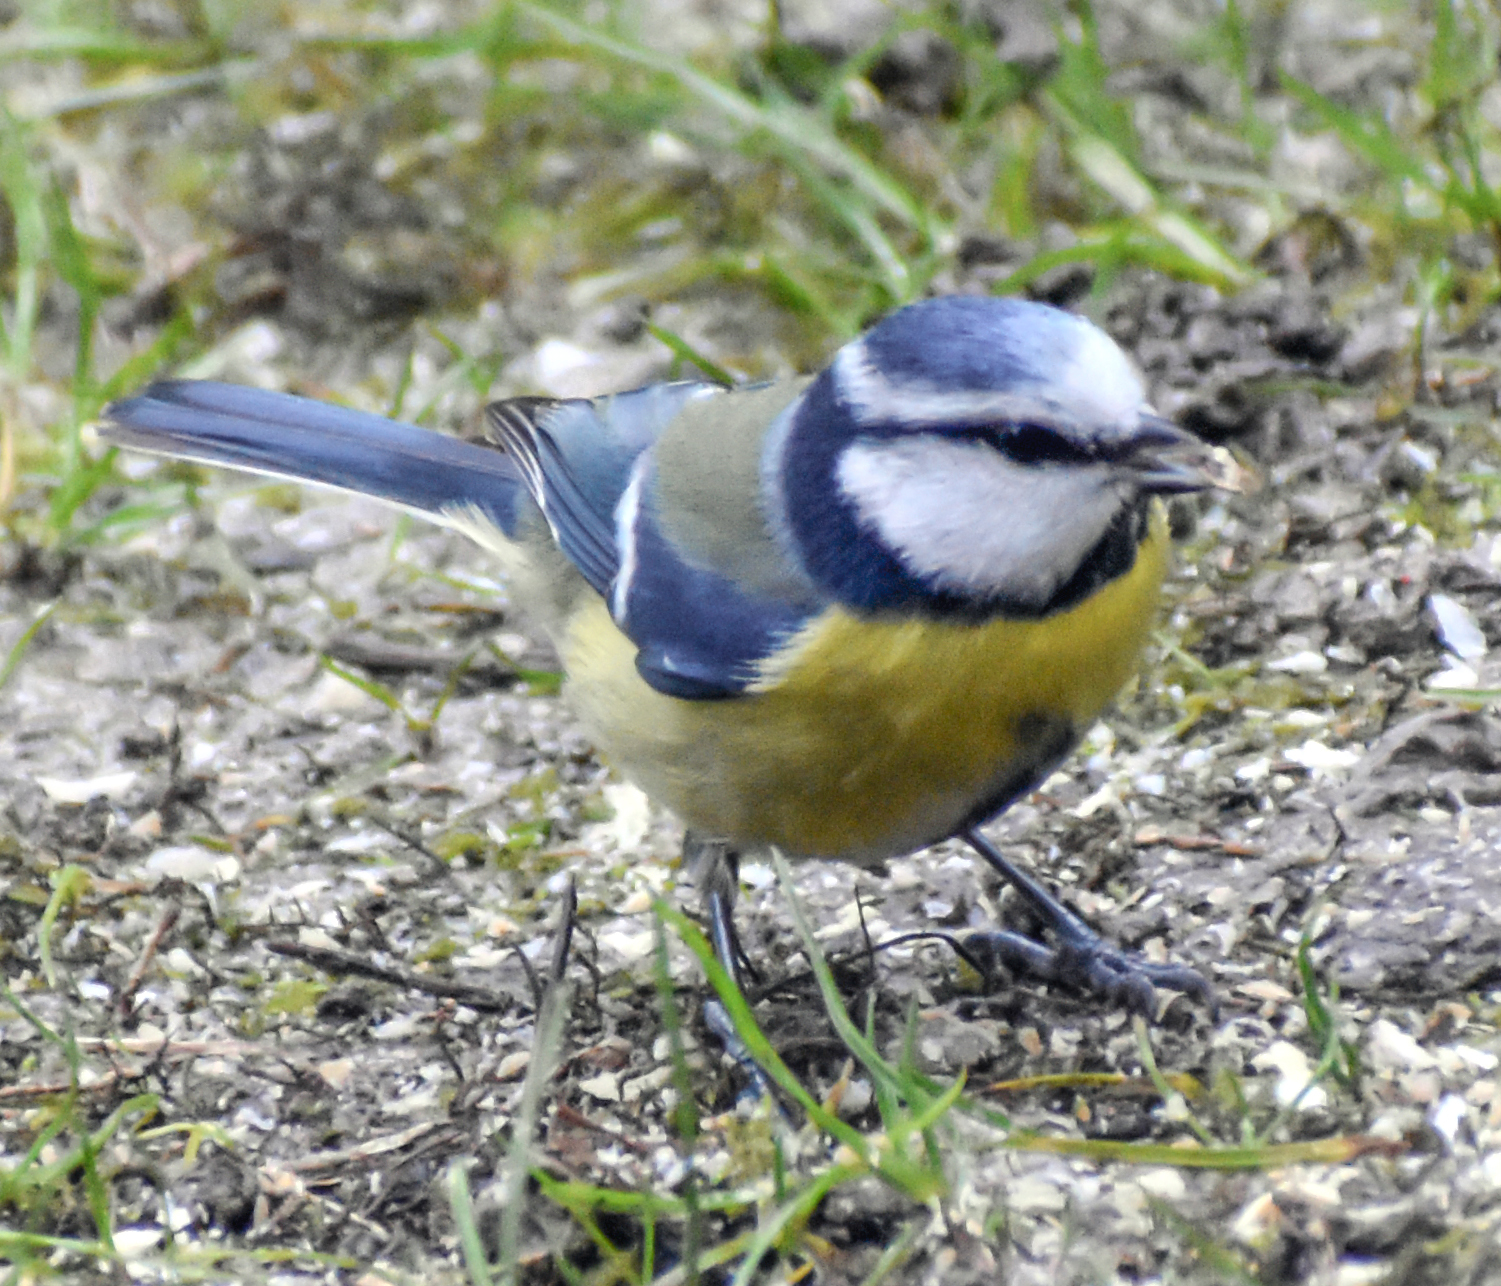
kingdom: Animalia
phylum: Chordata
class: Aves
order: Passeriformes
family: Paridae
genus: Cyanistes
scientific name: Cyanistes caeruleus
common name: Eurasian blue tit
